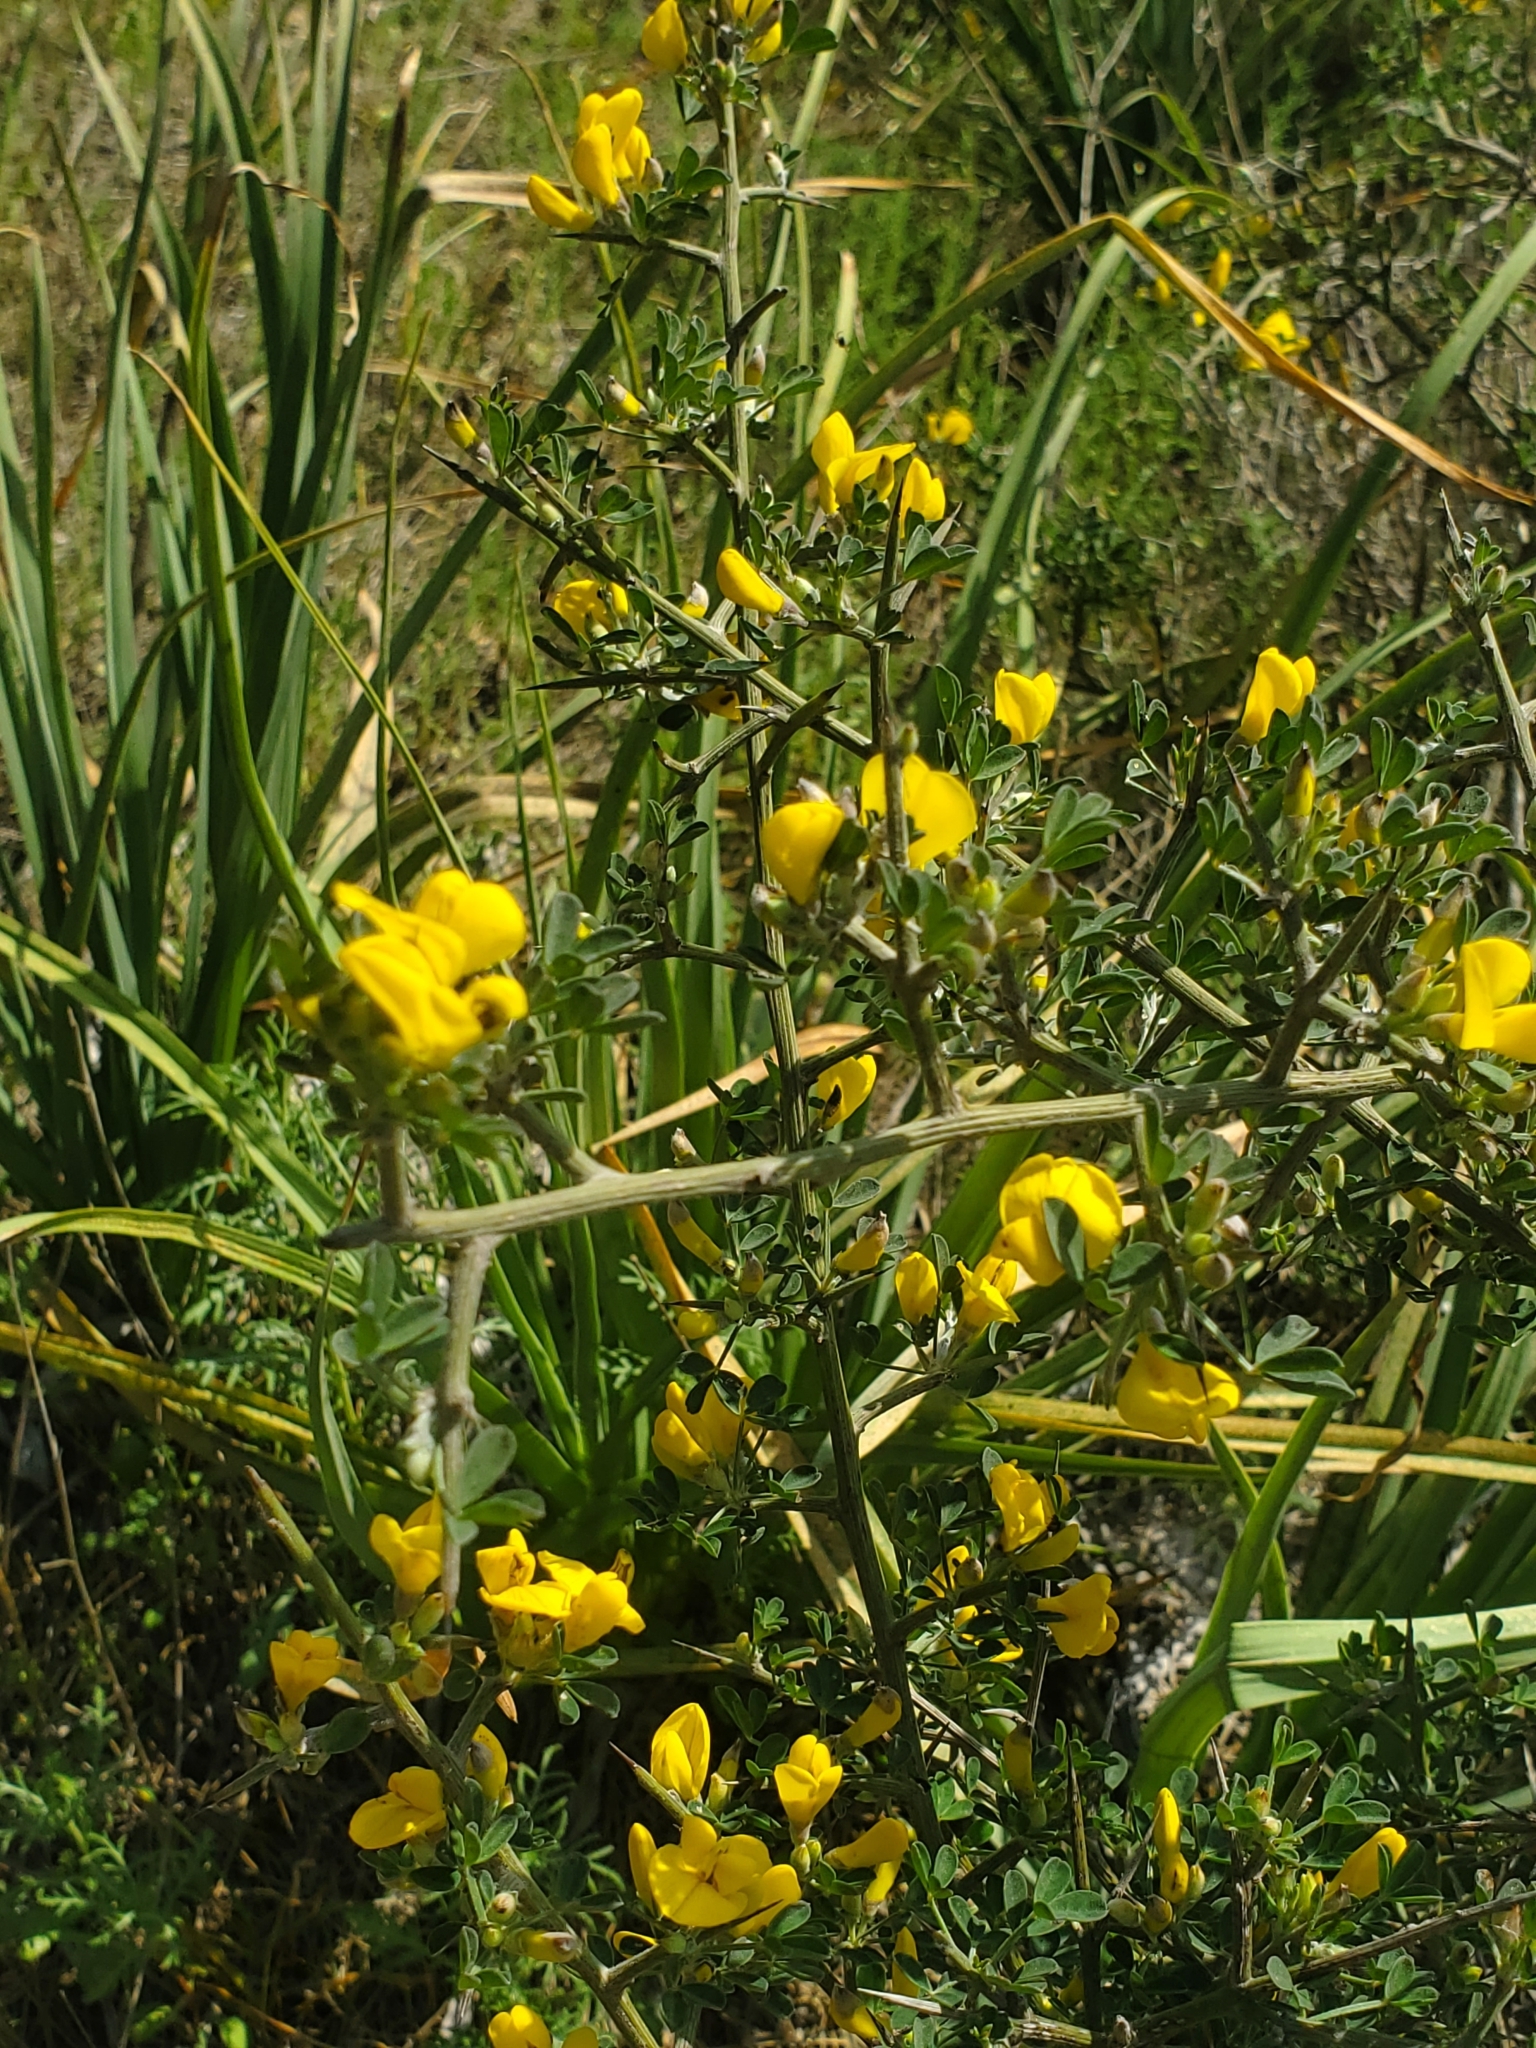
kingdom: Plantae
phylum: Tracheophyta
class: Magnoliopsida
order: Fabales
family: Fabaceae
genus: Calicotome
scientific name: Calicotome villosa
